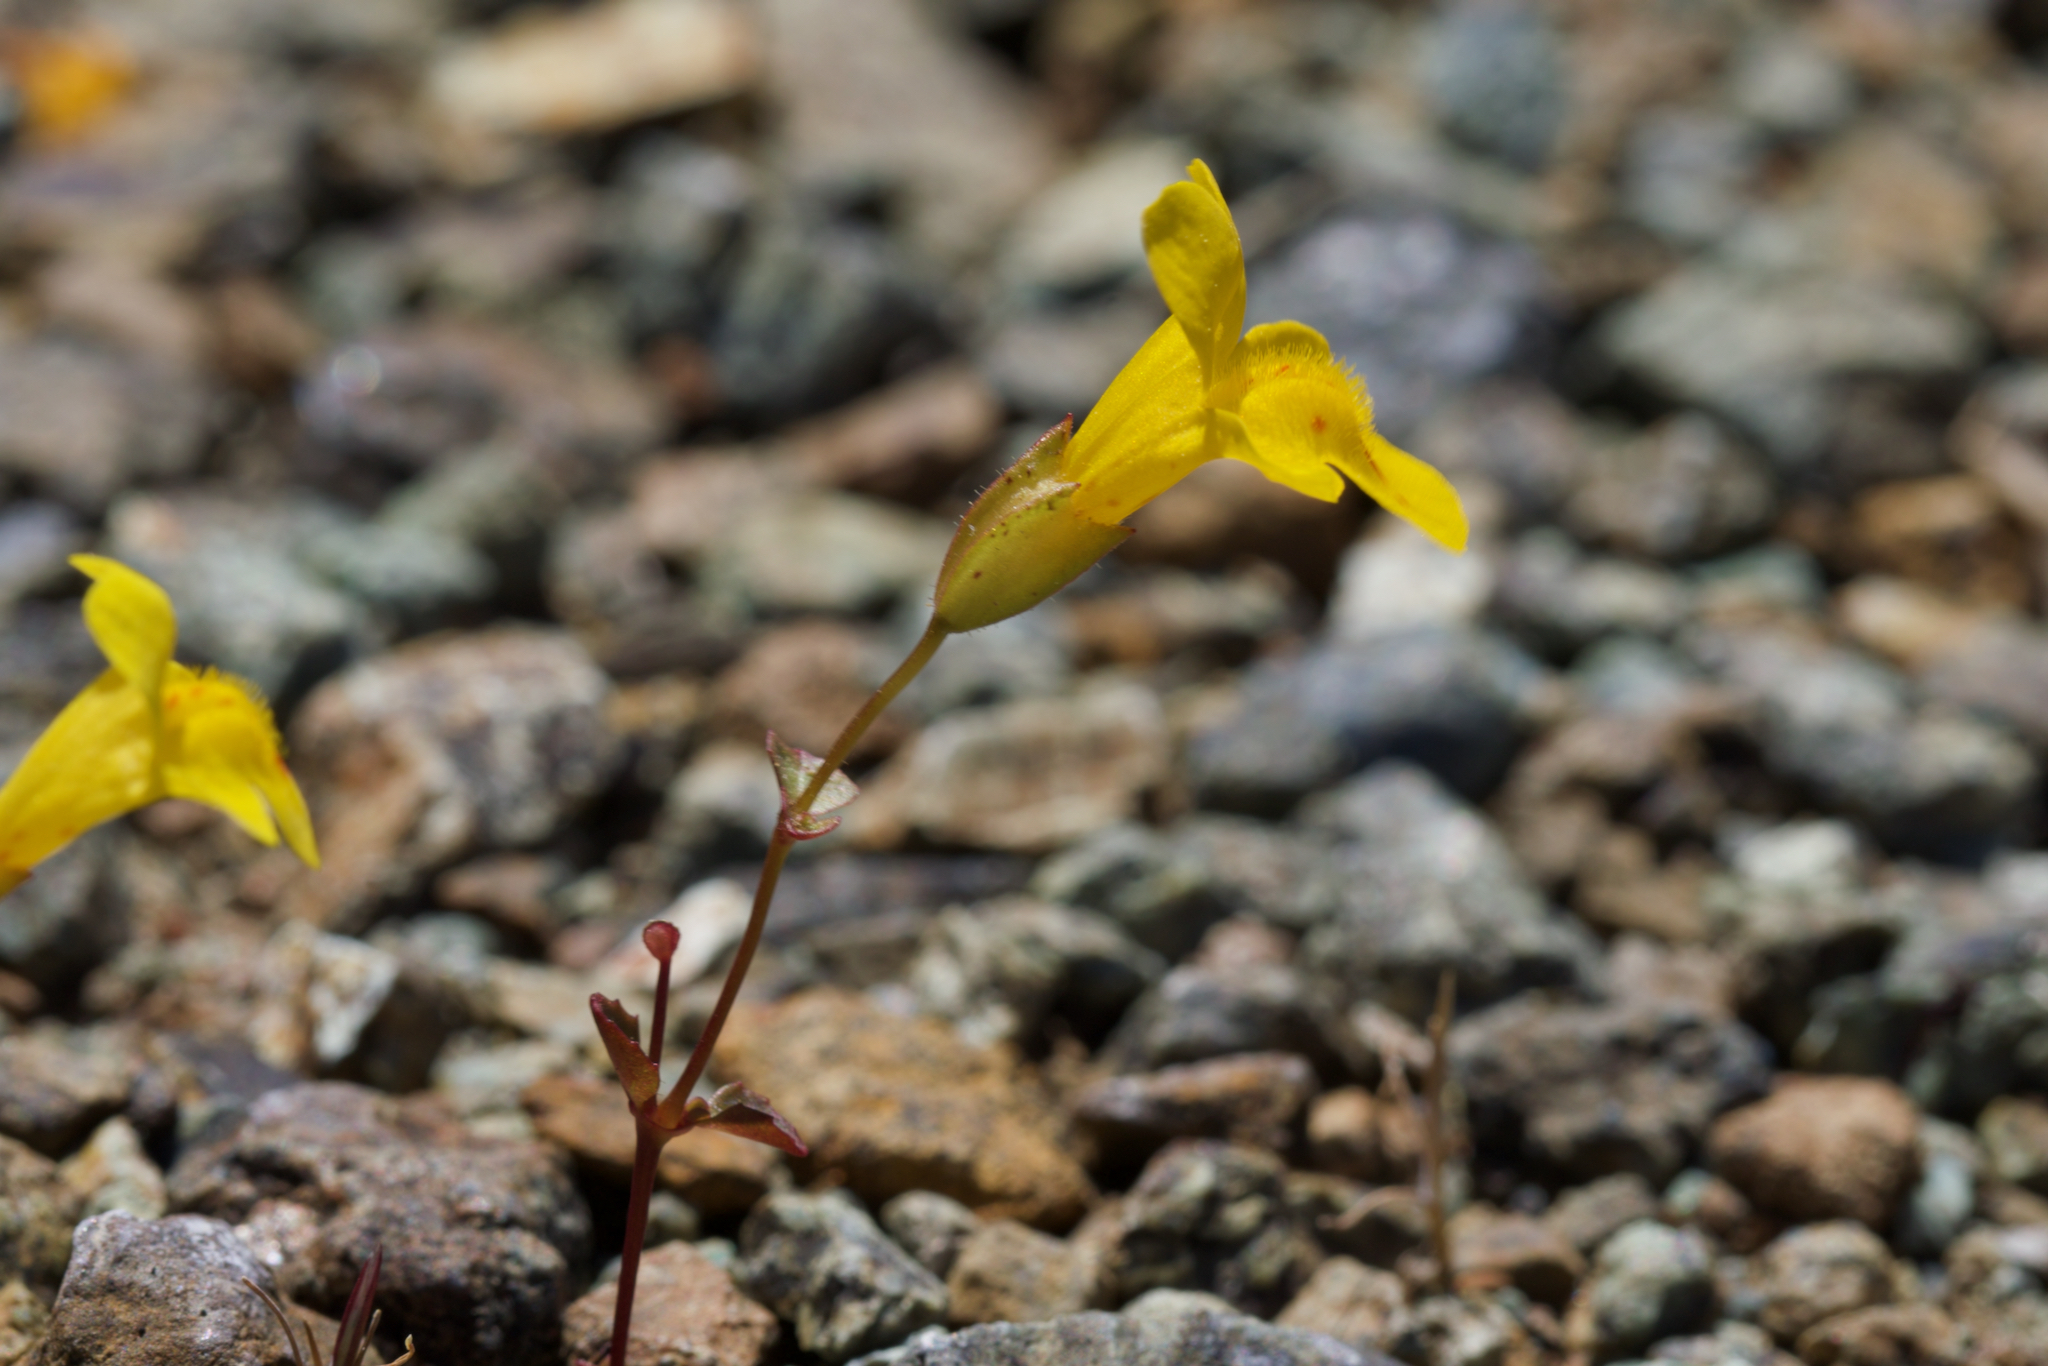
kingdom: Plantae
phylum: Tracheophyta
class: Magnoliopsida
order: Lamiales
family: Phrymaceae
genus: Erythranthe
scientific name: Erythranthe microphylla
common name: Bentham's monkeyflower
